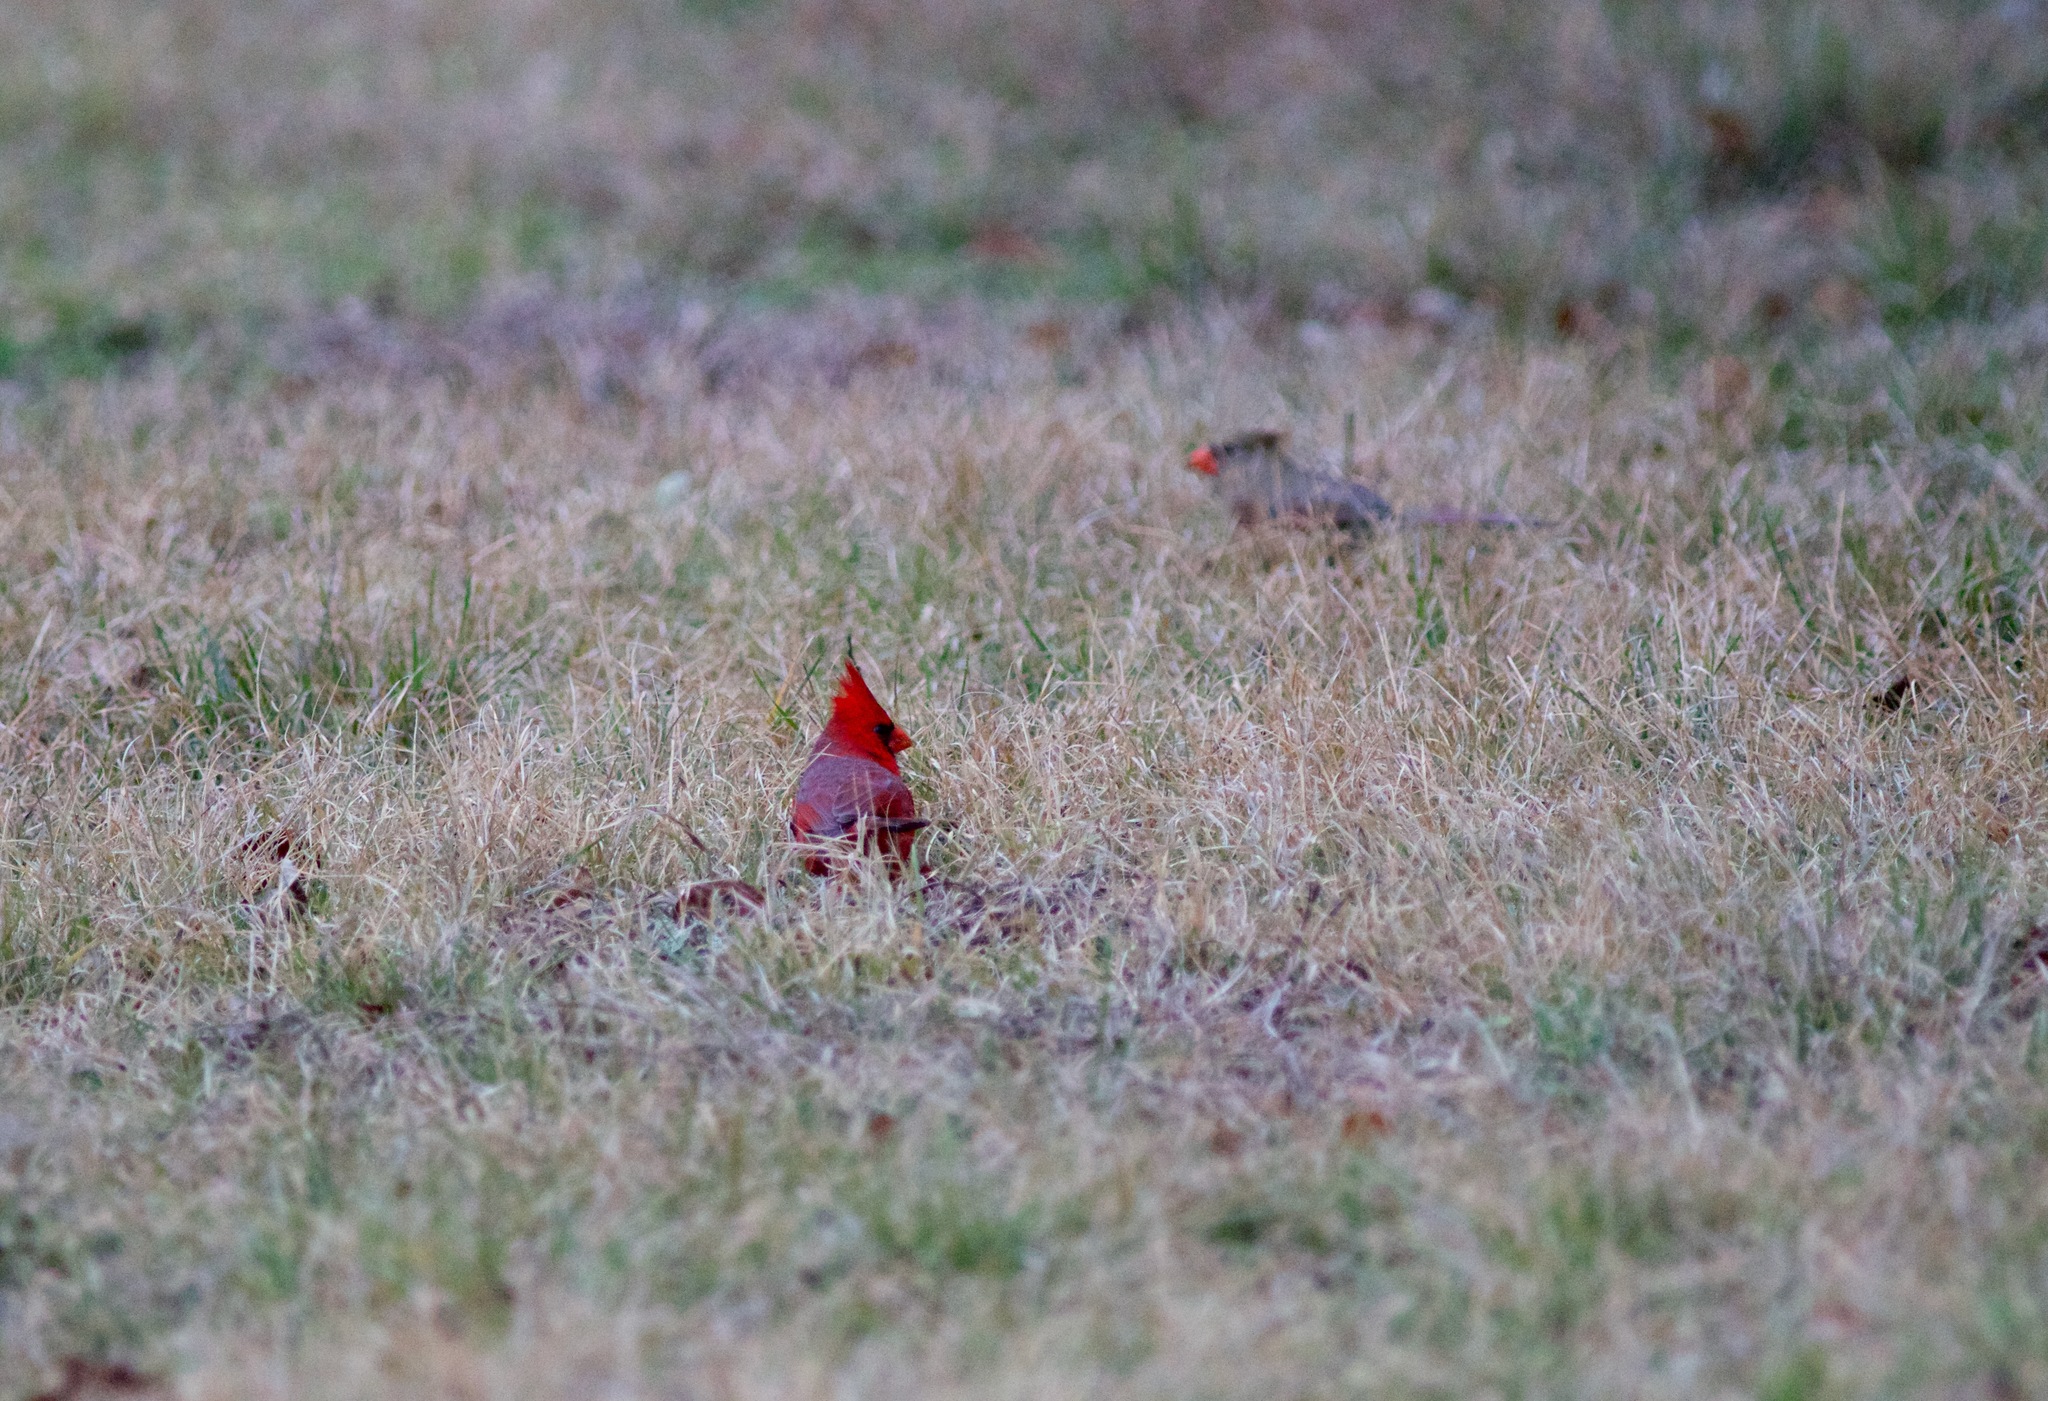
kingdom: Animalia
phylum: Chordata
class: Aves
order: Passeriformes
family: Cardinalidae
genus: Cardinalis
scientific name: Cardinalis cardinalis
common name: Northern cardinal
